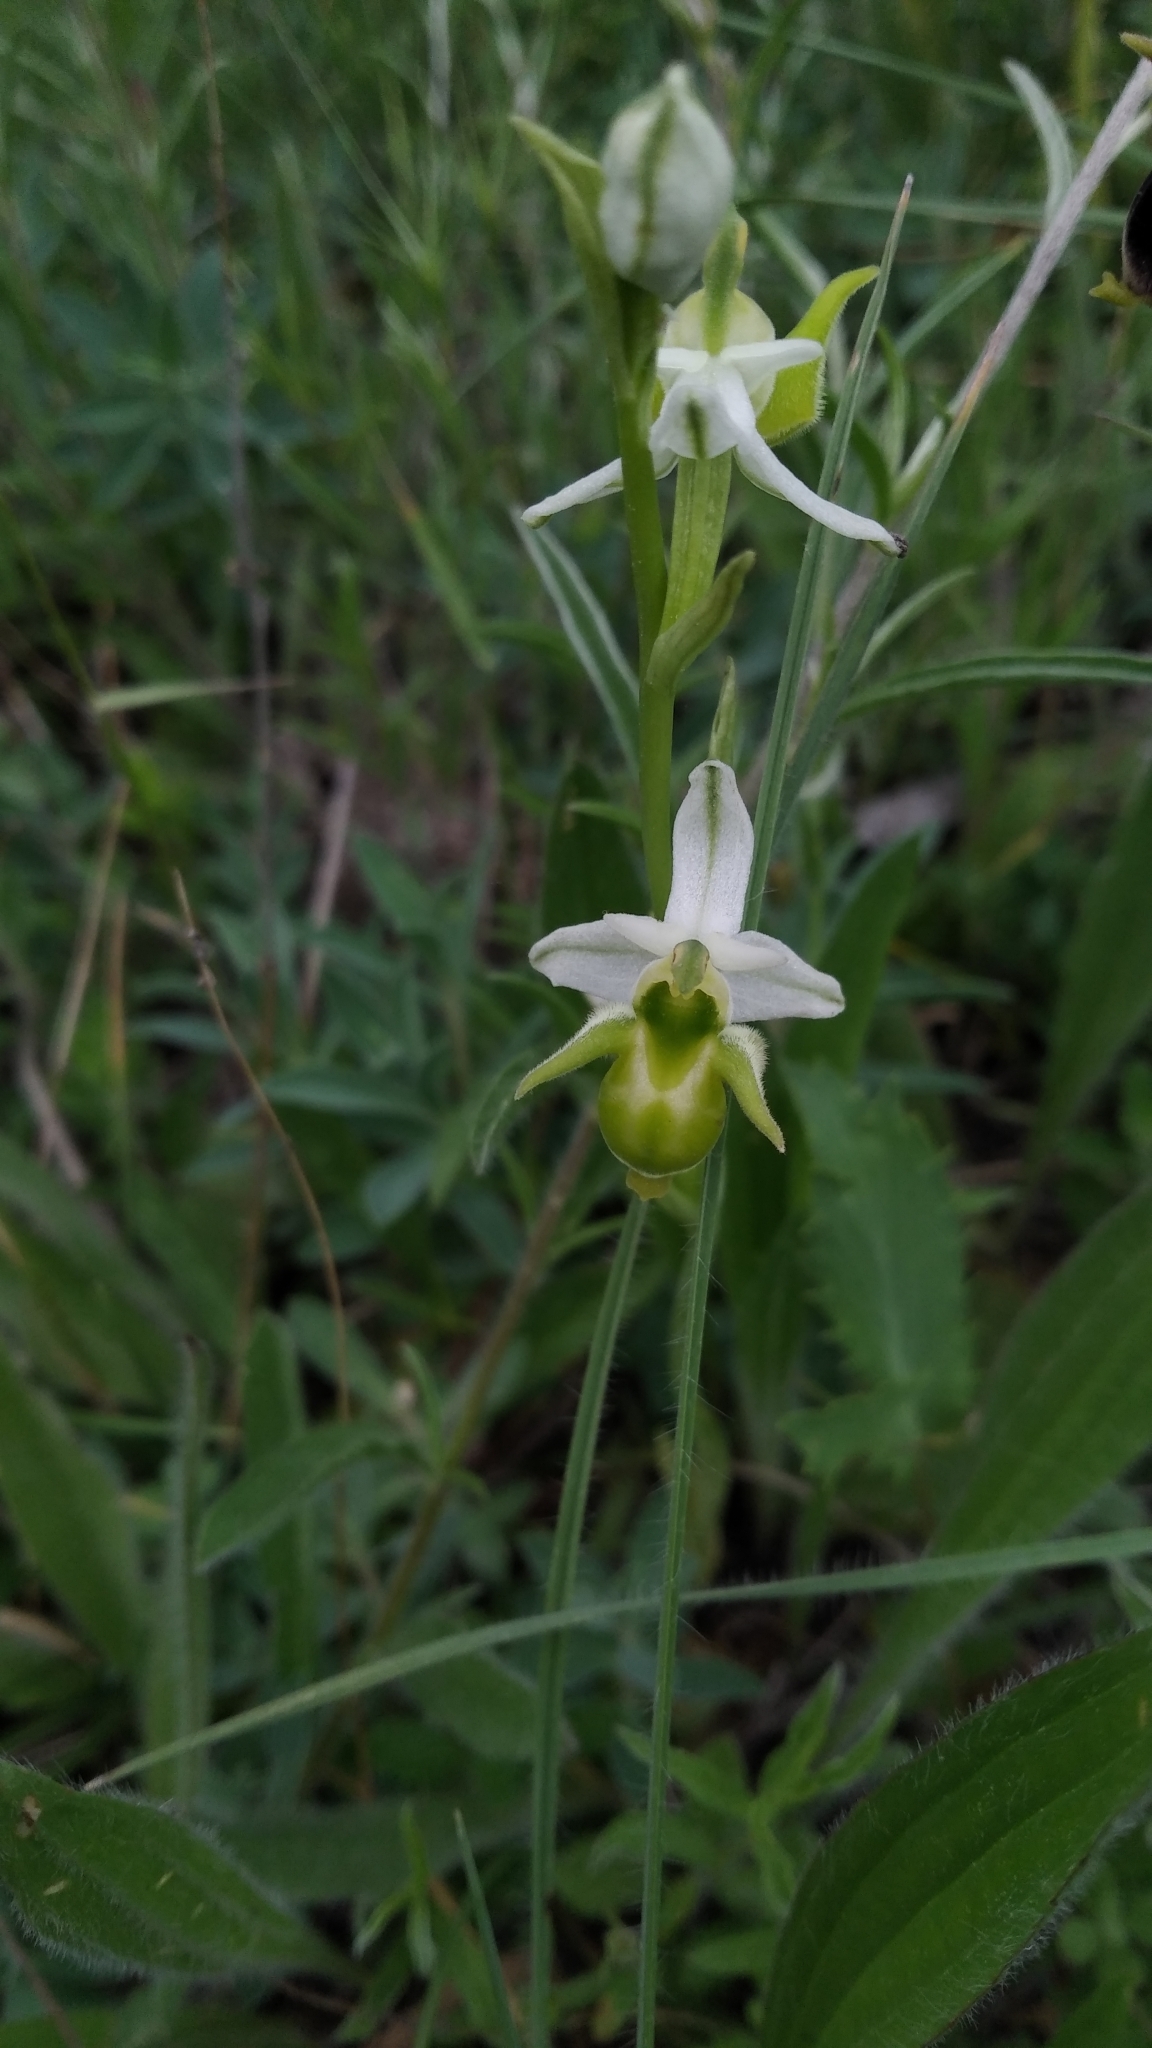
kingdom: Plantae
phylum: Tracheophyta
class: Liliopsida
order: Asparagales
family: Orchidaceae
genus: Ophrys
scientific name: Ophrys
